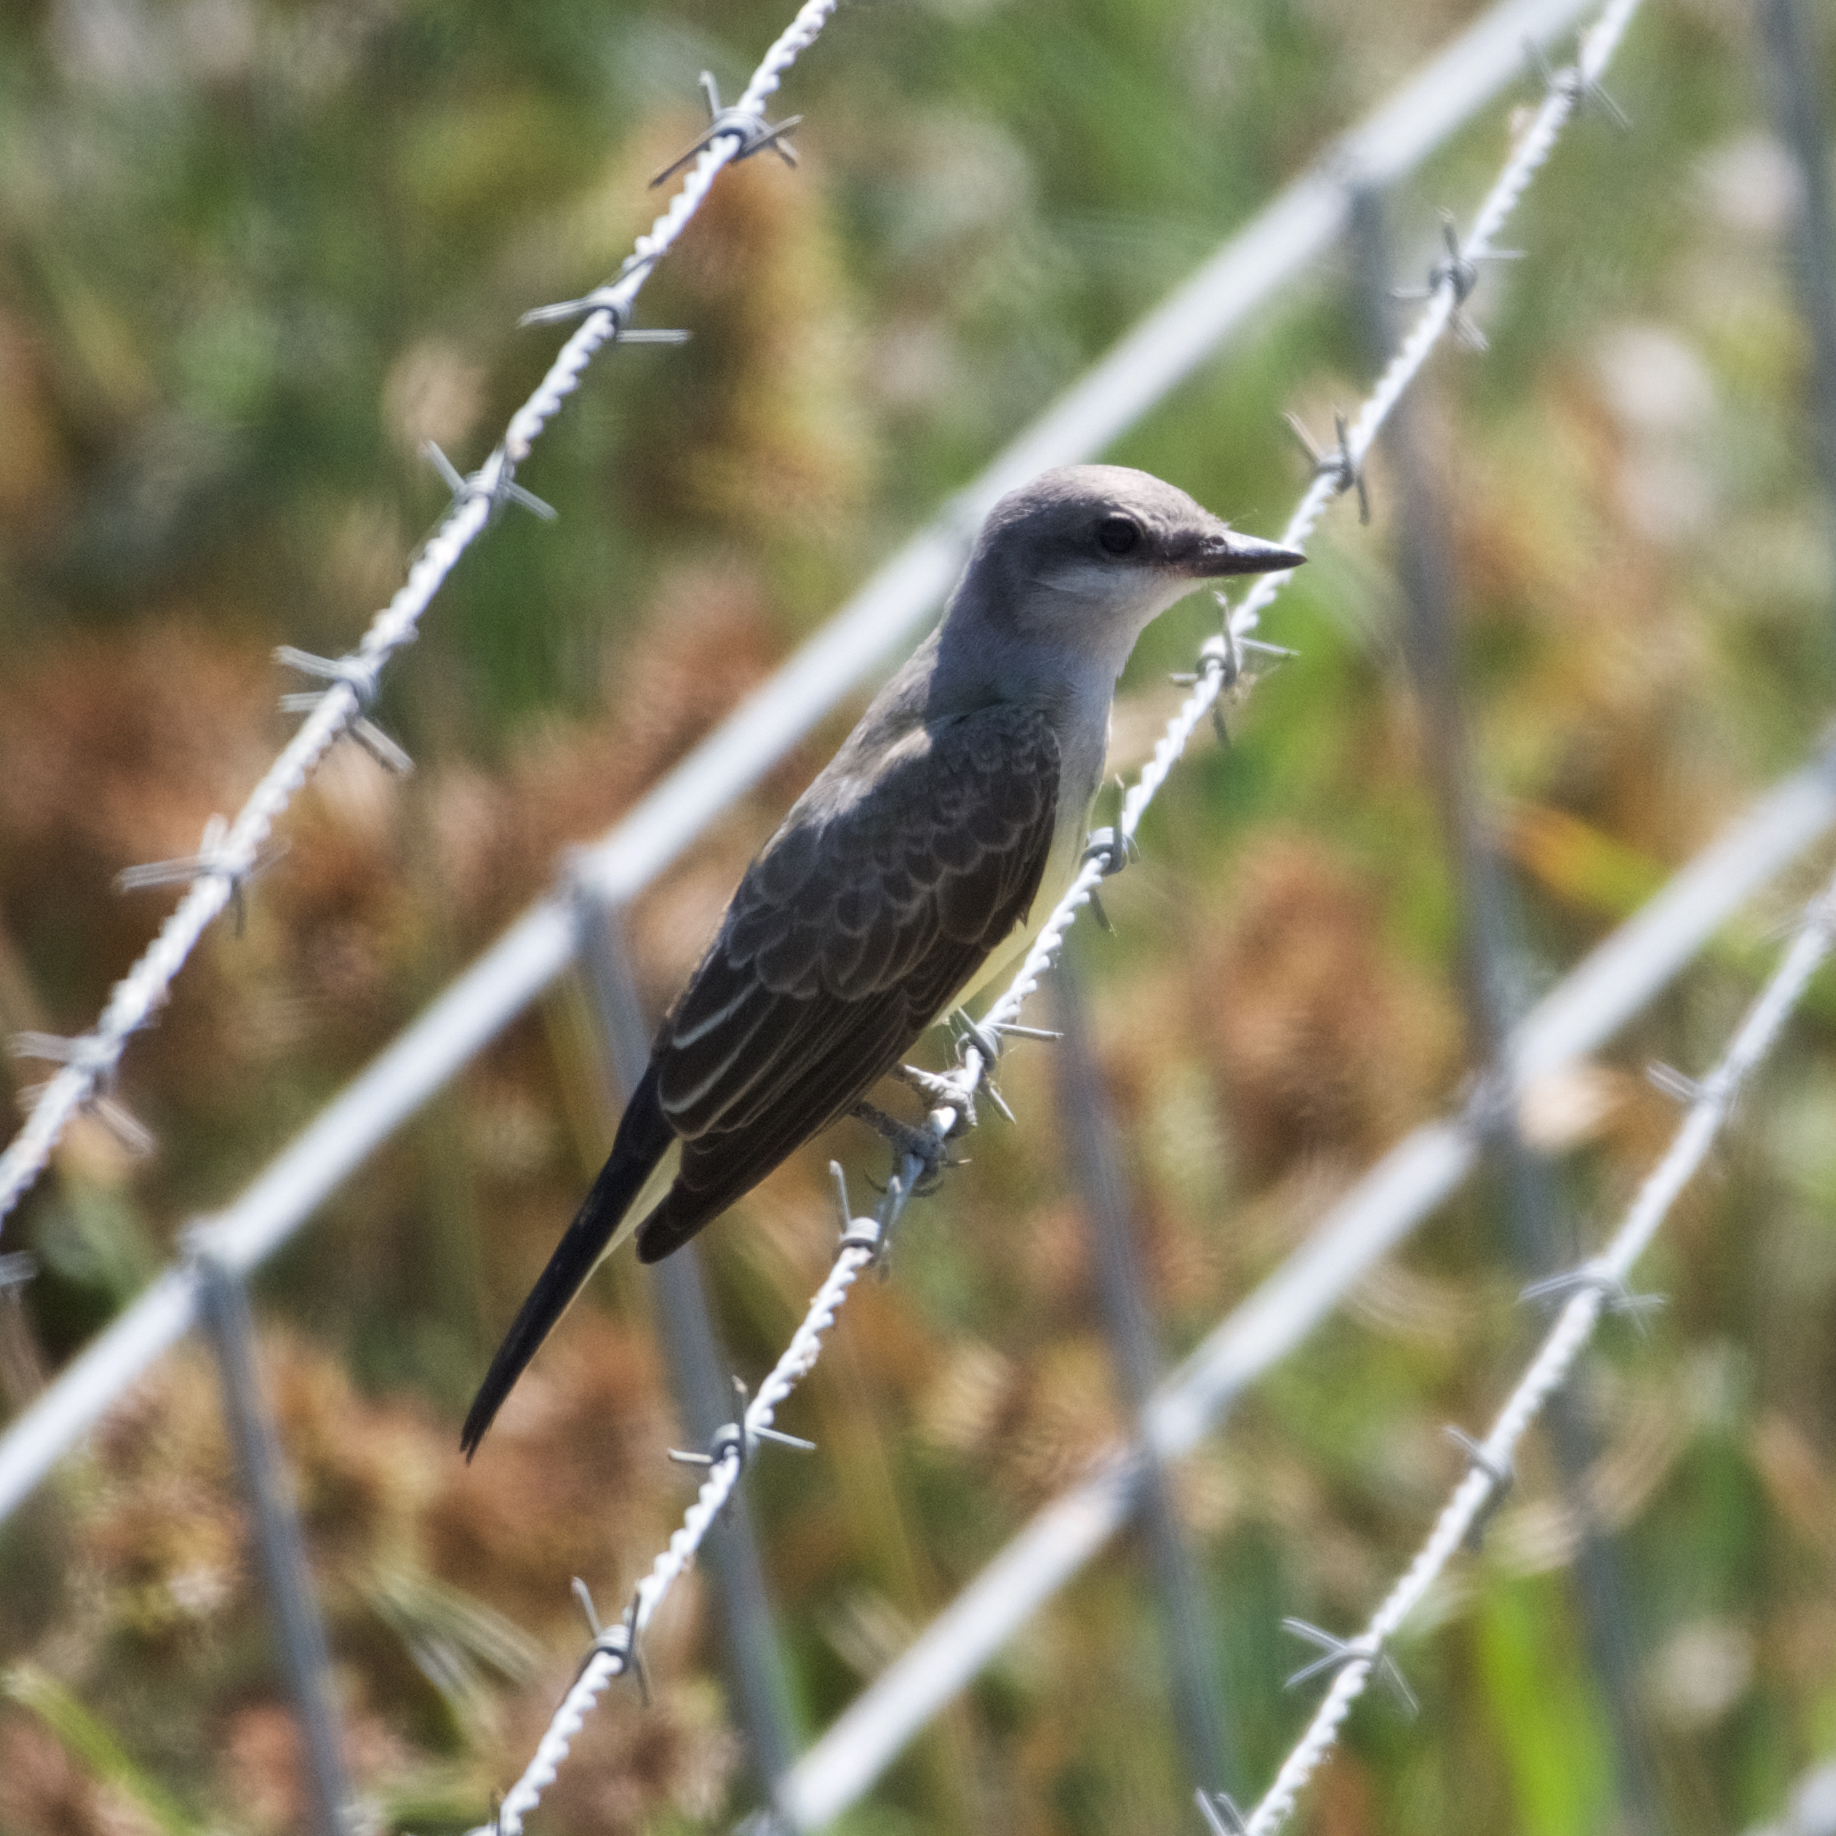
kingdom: Animalia
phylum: Chordata
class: Aves
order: Passeriformes
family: Tyrannidae
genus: Tyrannus
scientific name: Tyrannus verticalis
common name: Western kingbird
